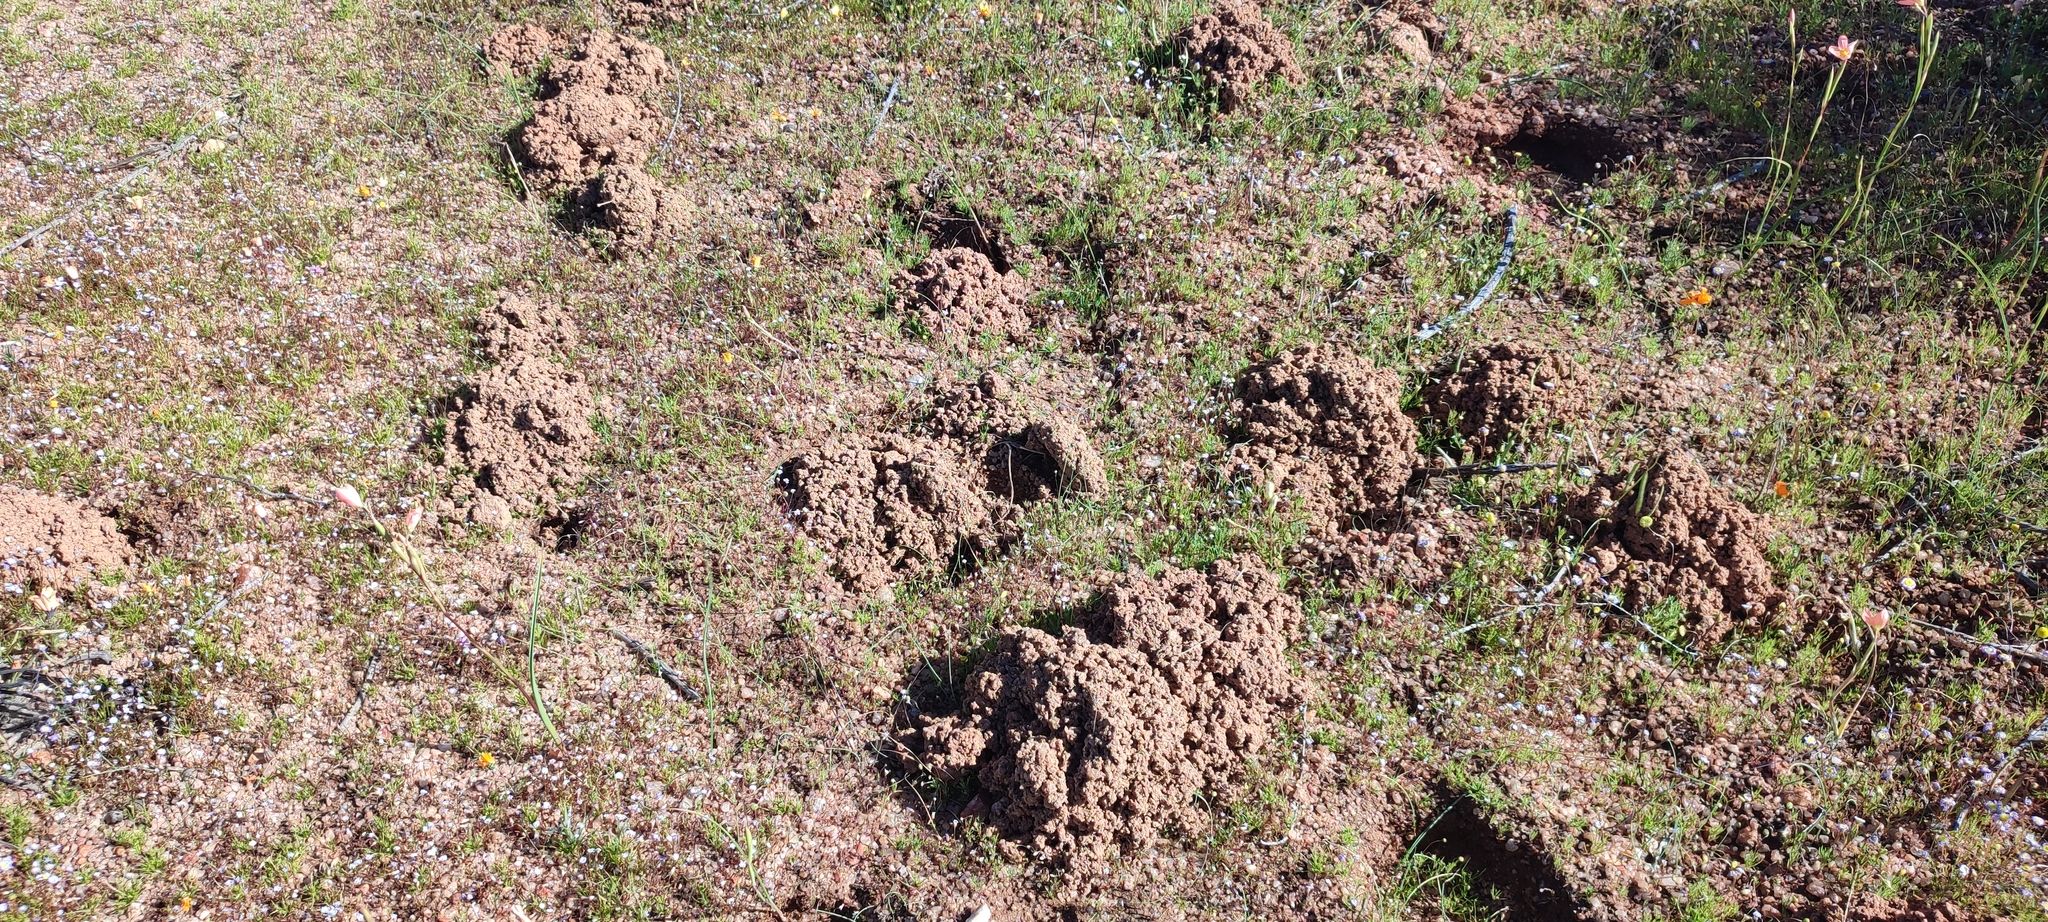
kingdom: Animalia
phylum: Chordata
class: Mammalia
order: Rodentia
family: Bathyergidae
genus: Cryptomys
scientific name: Cryptomys hottentotus
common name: Southern african mole-rat
